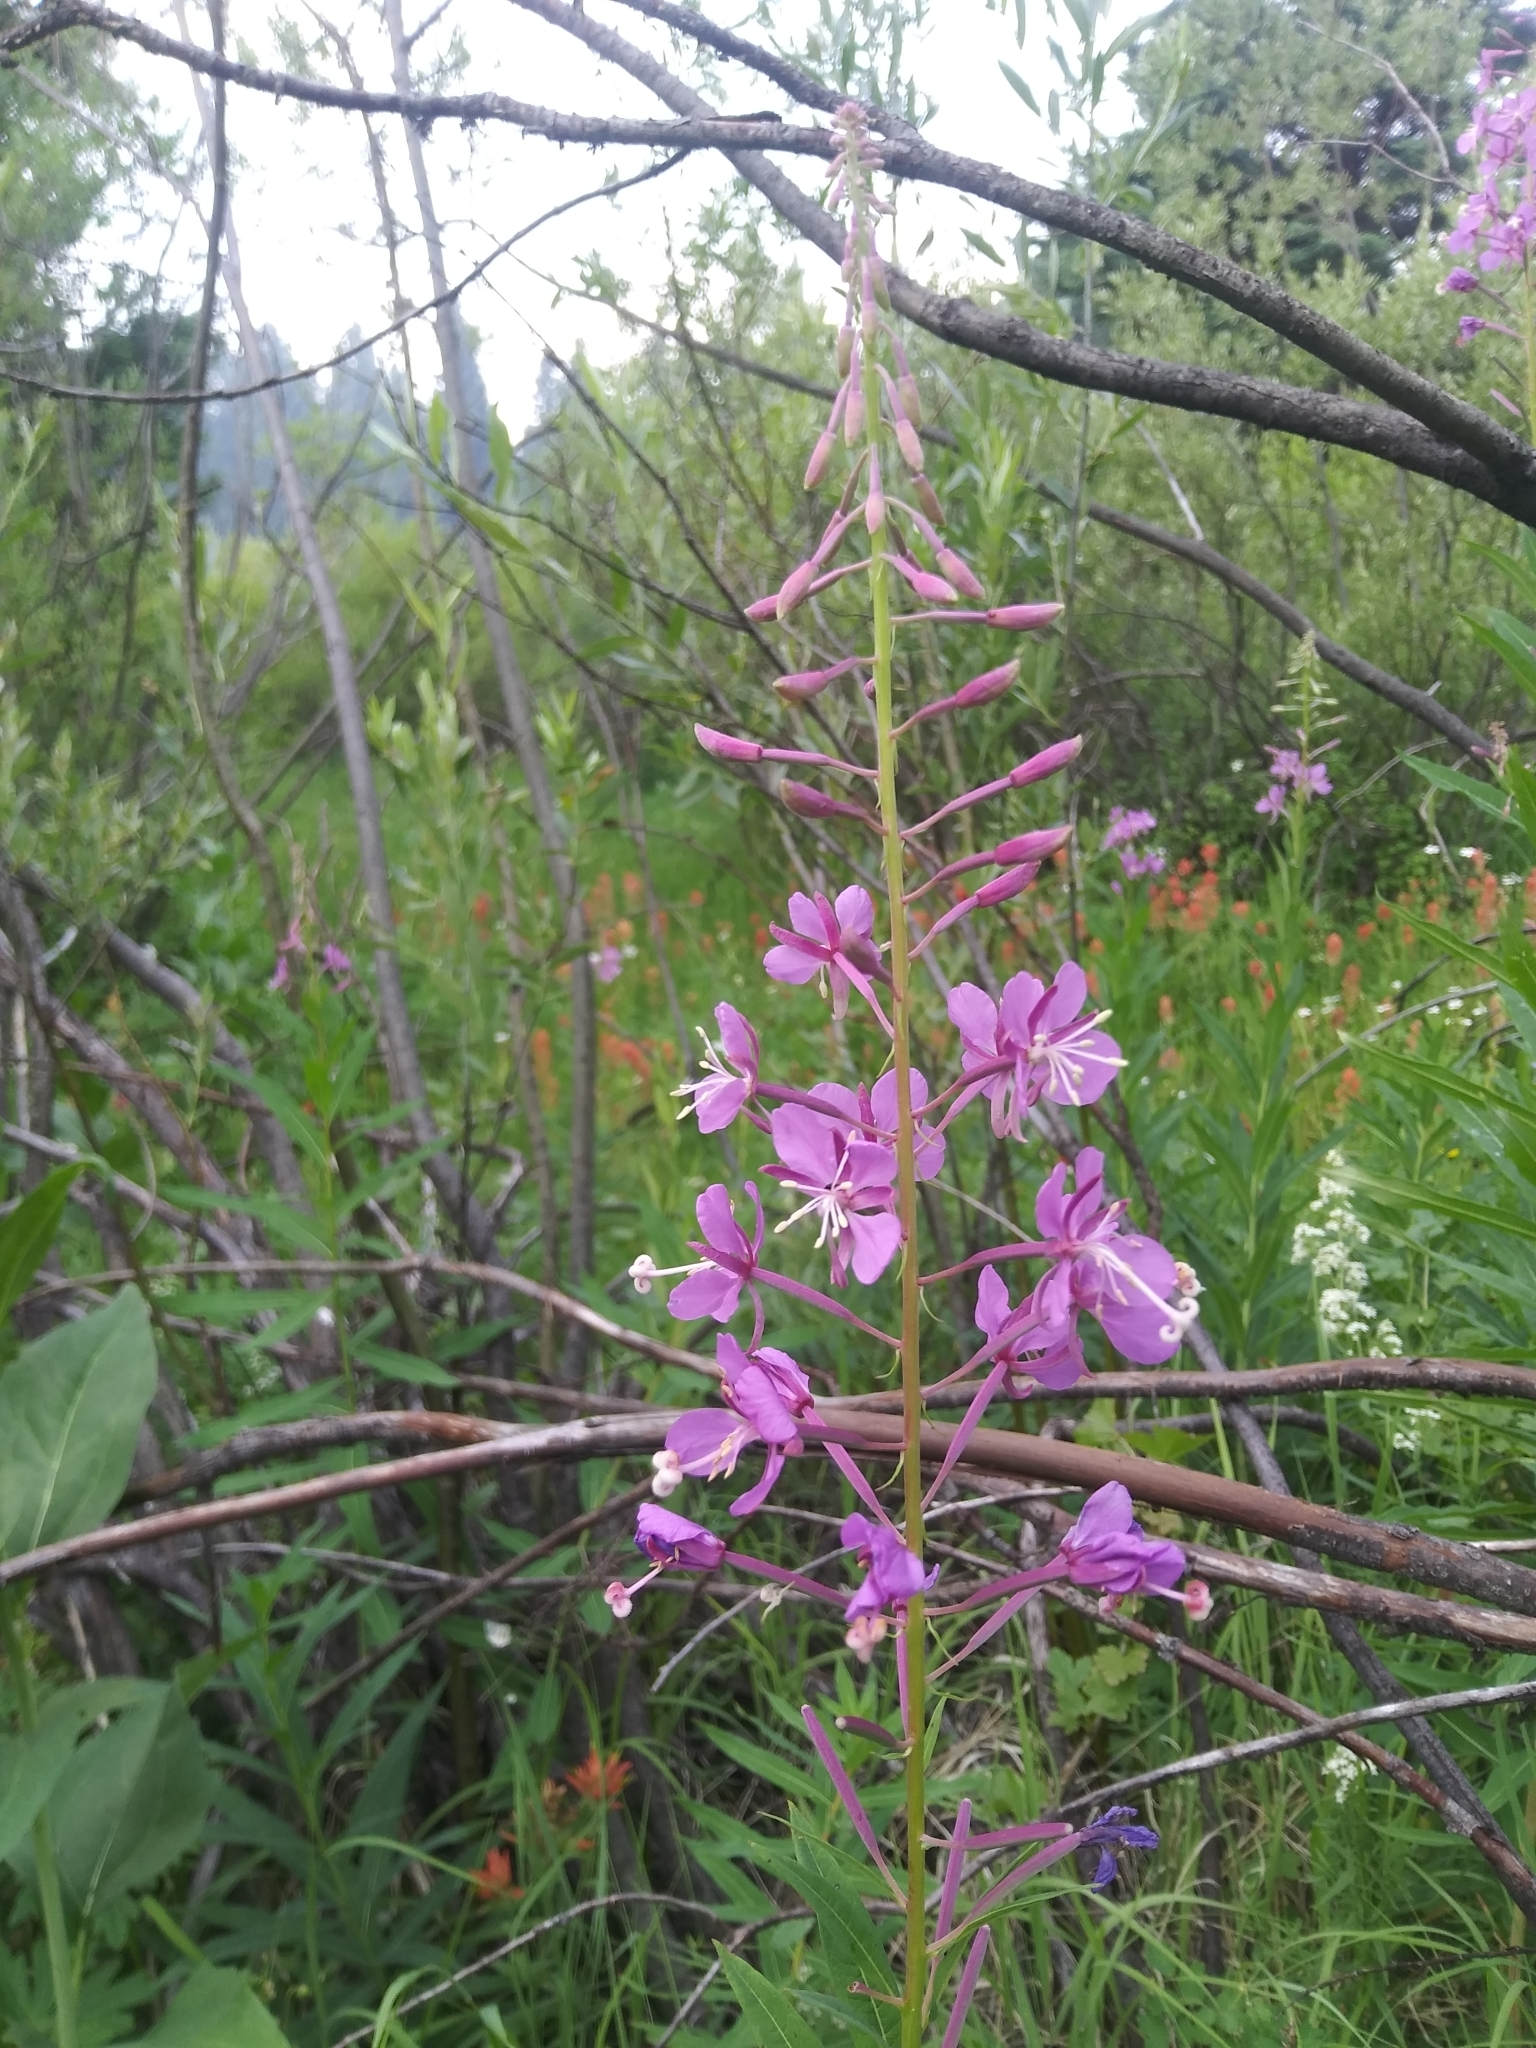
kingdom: Plantae
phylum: Tracheophyta
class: Magnoliopsida
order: Myrtales
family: Onagraceae
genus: Chamaenerion
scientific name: Chamaenerion angustifolium
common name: Fireweed
